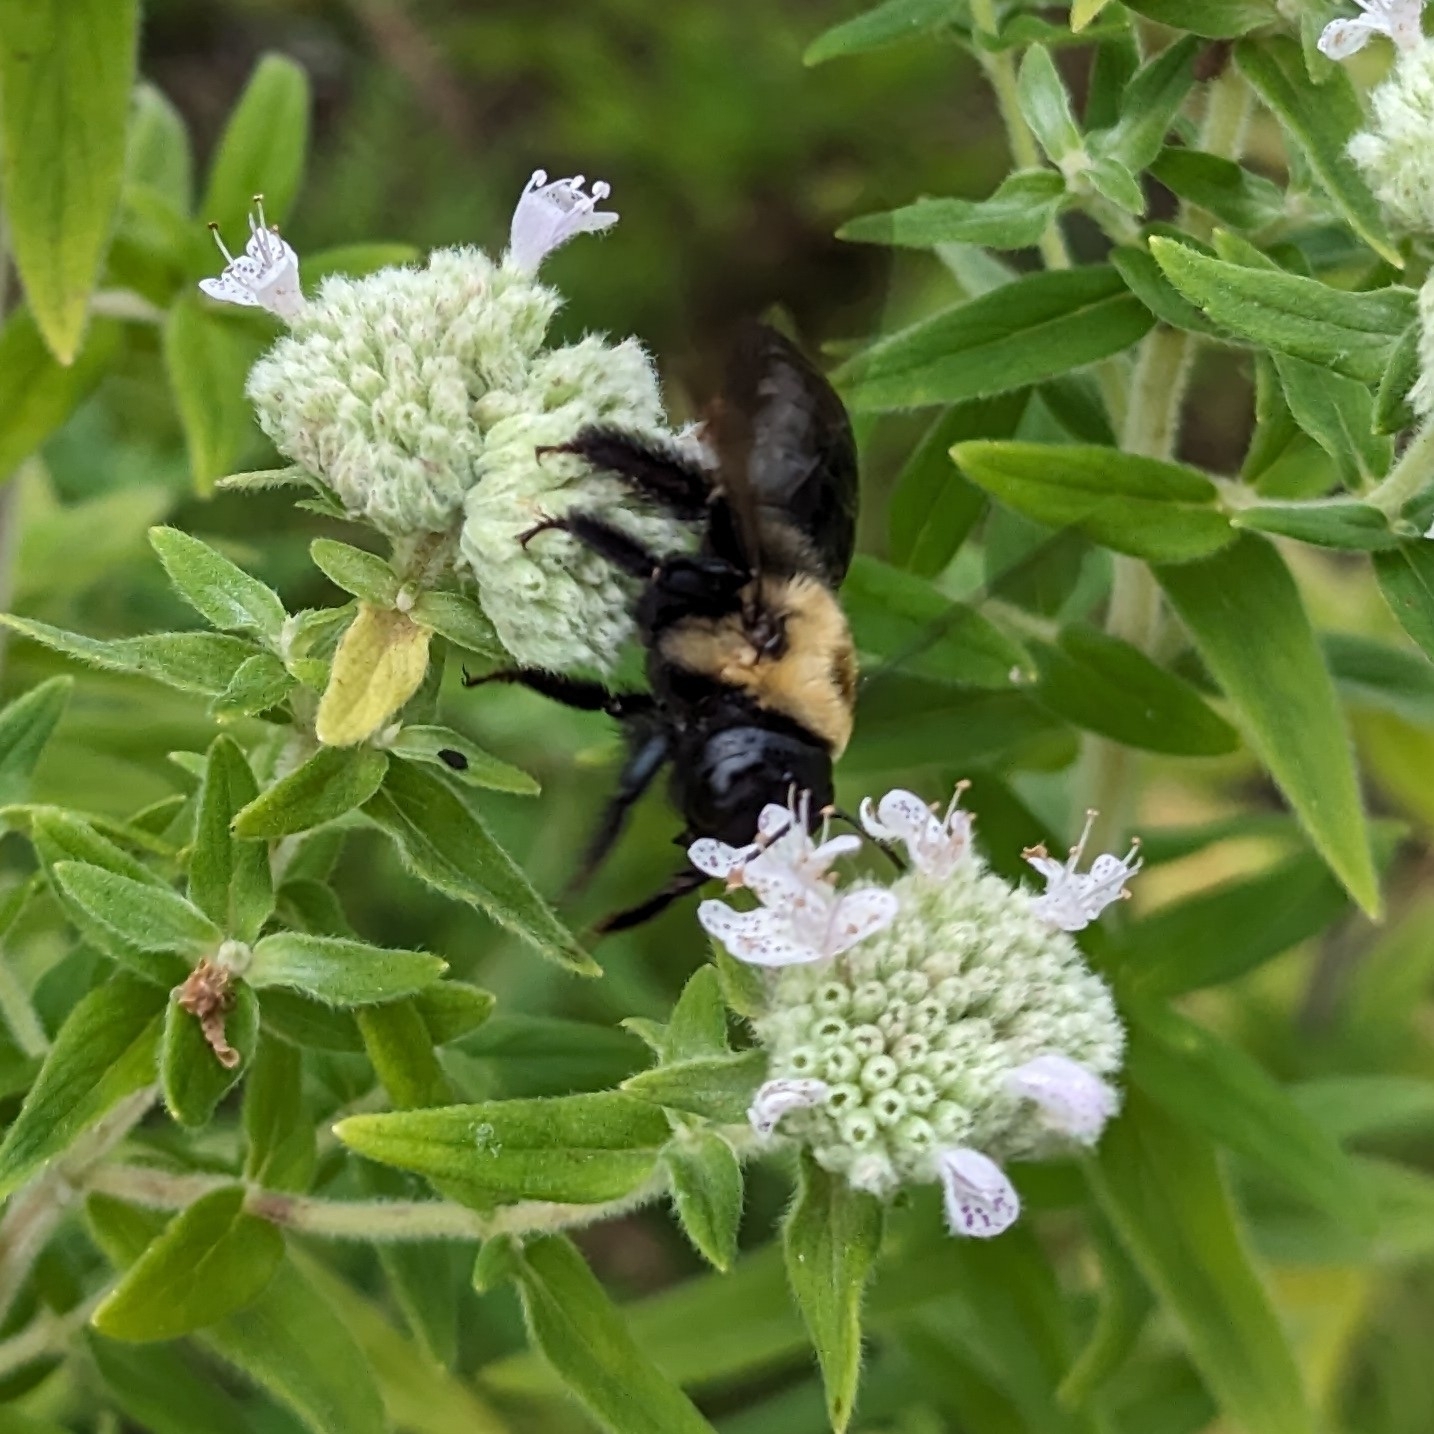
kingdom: Animalia
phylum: Arthropoda
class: Insecta
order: Hymenoptera
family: Apidae
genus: Xylocopa
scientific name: Xylocopa virginica
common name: Carpenter bee
